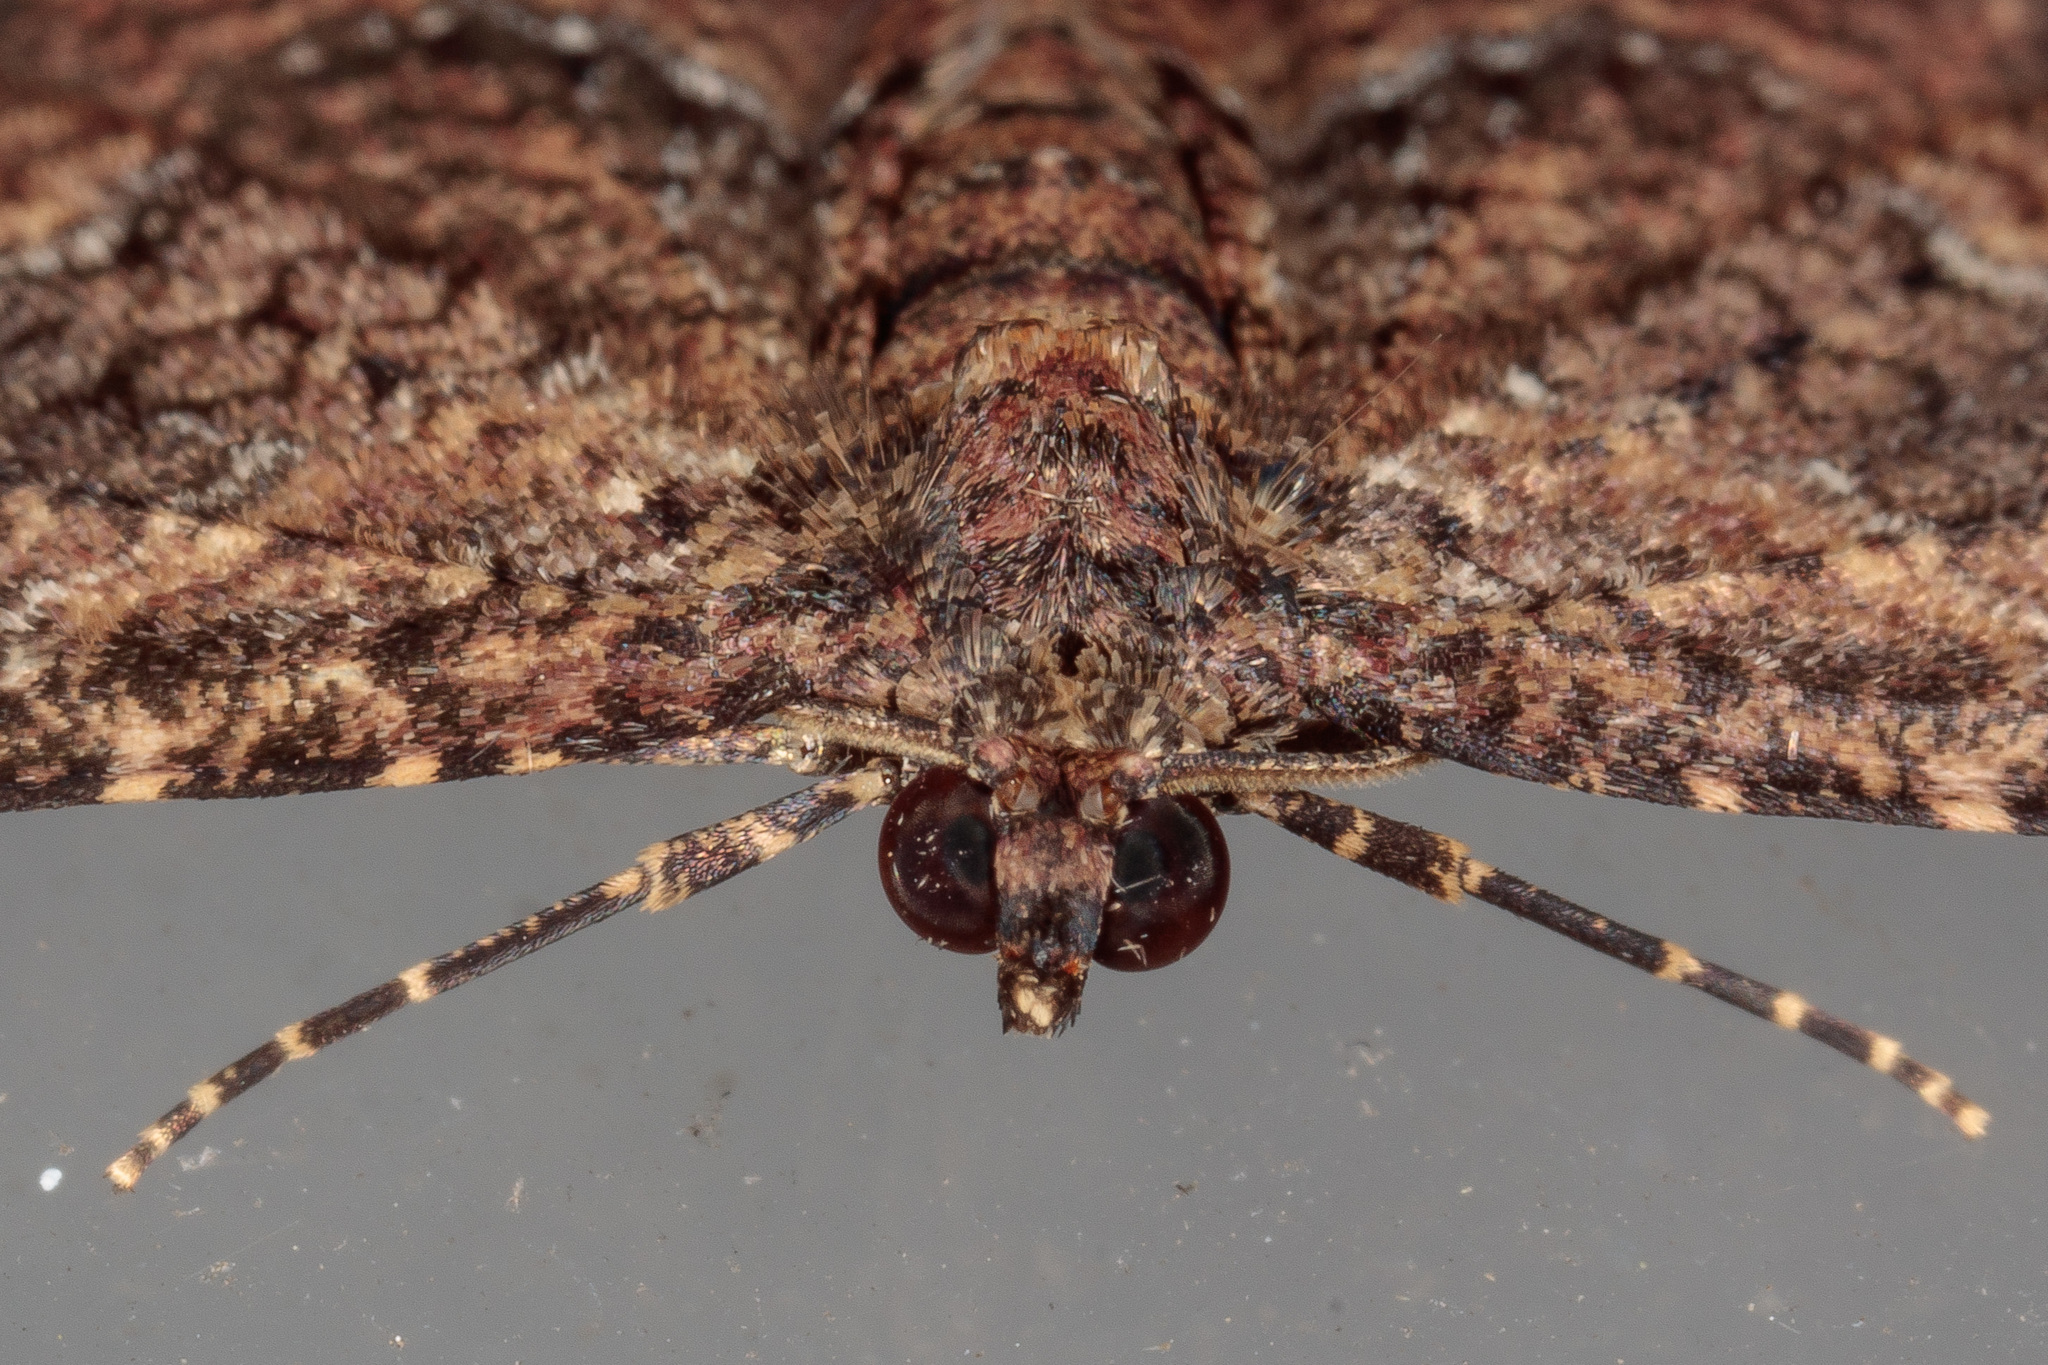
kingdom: Animalia
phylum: Arthropoda
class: Insecta
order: Lepidoptera
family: Geometridae
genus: Disclisioprocta
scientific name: Disclisioprocta stellata
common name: Somber carpet
